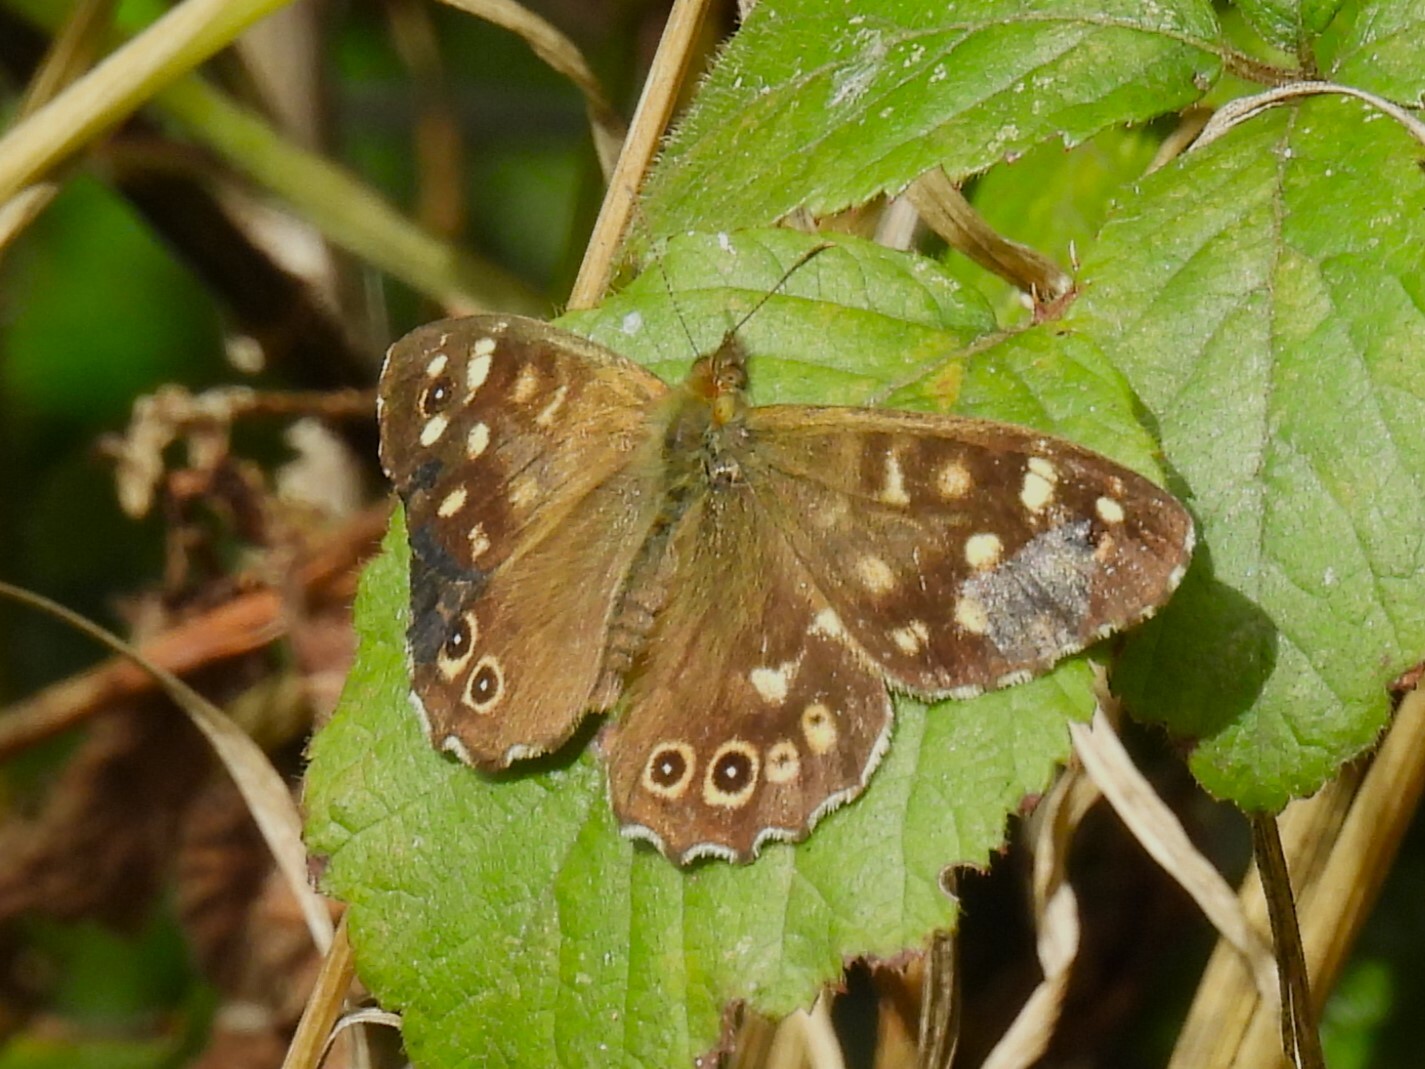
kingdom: Animalia
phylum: Arthropoda
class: Insecta
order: Lepidoptera
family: Nymphalidae
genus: Pararge
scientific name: Pararge aegeria
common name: Speckled wood
